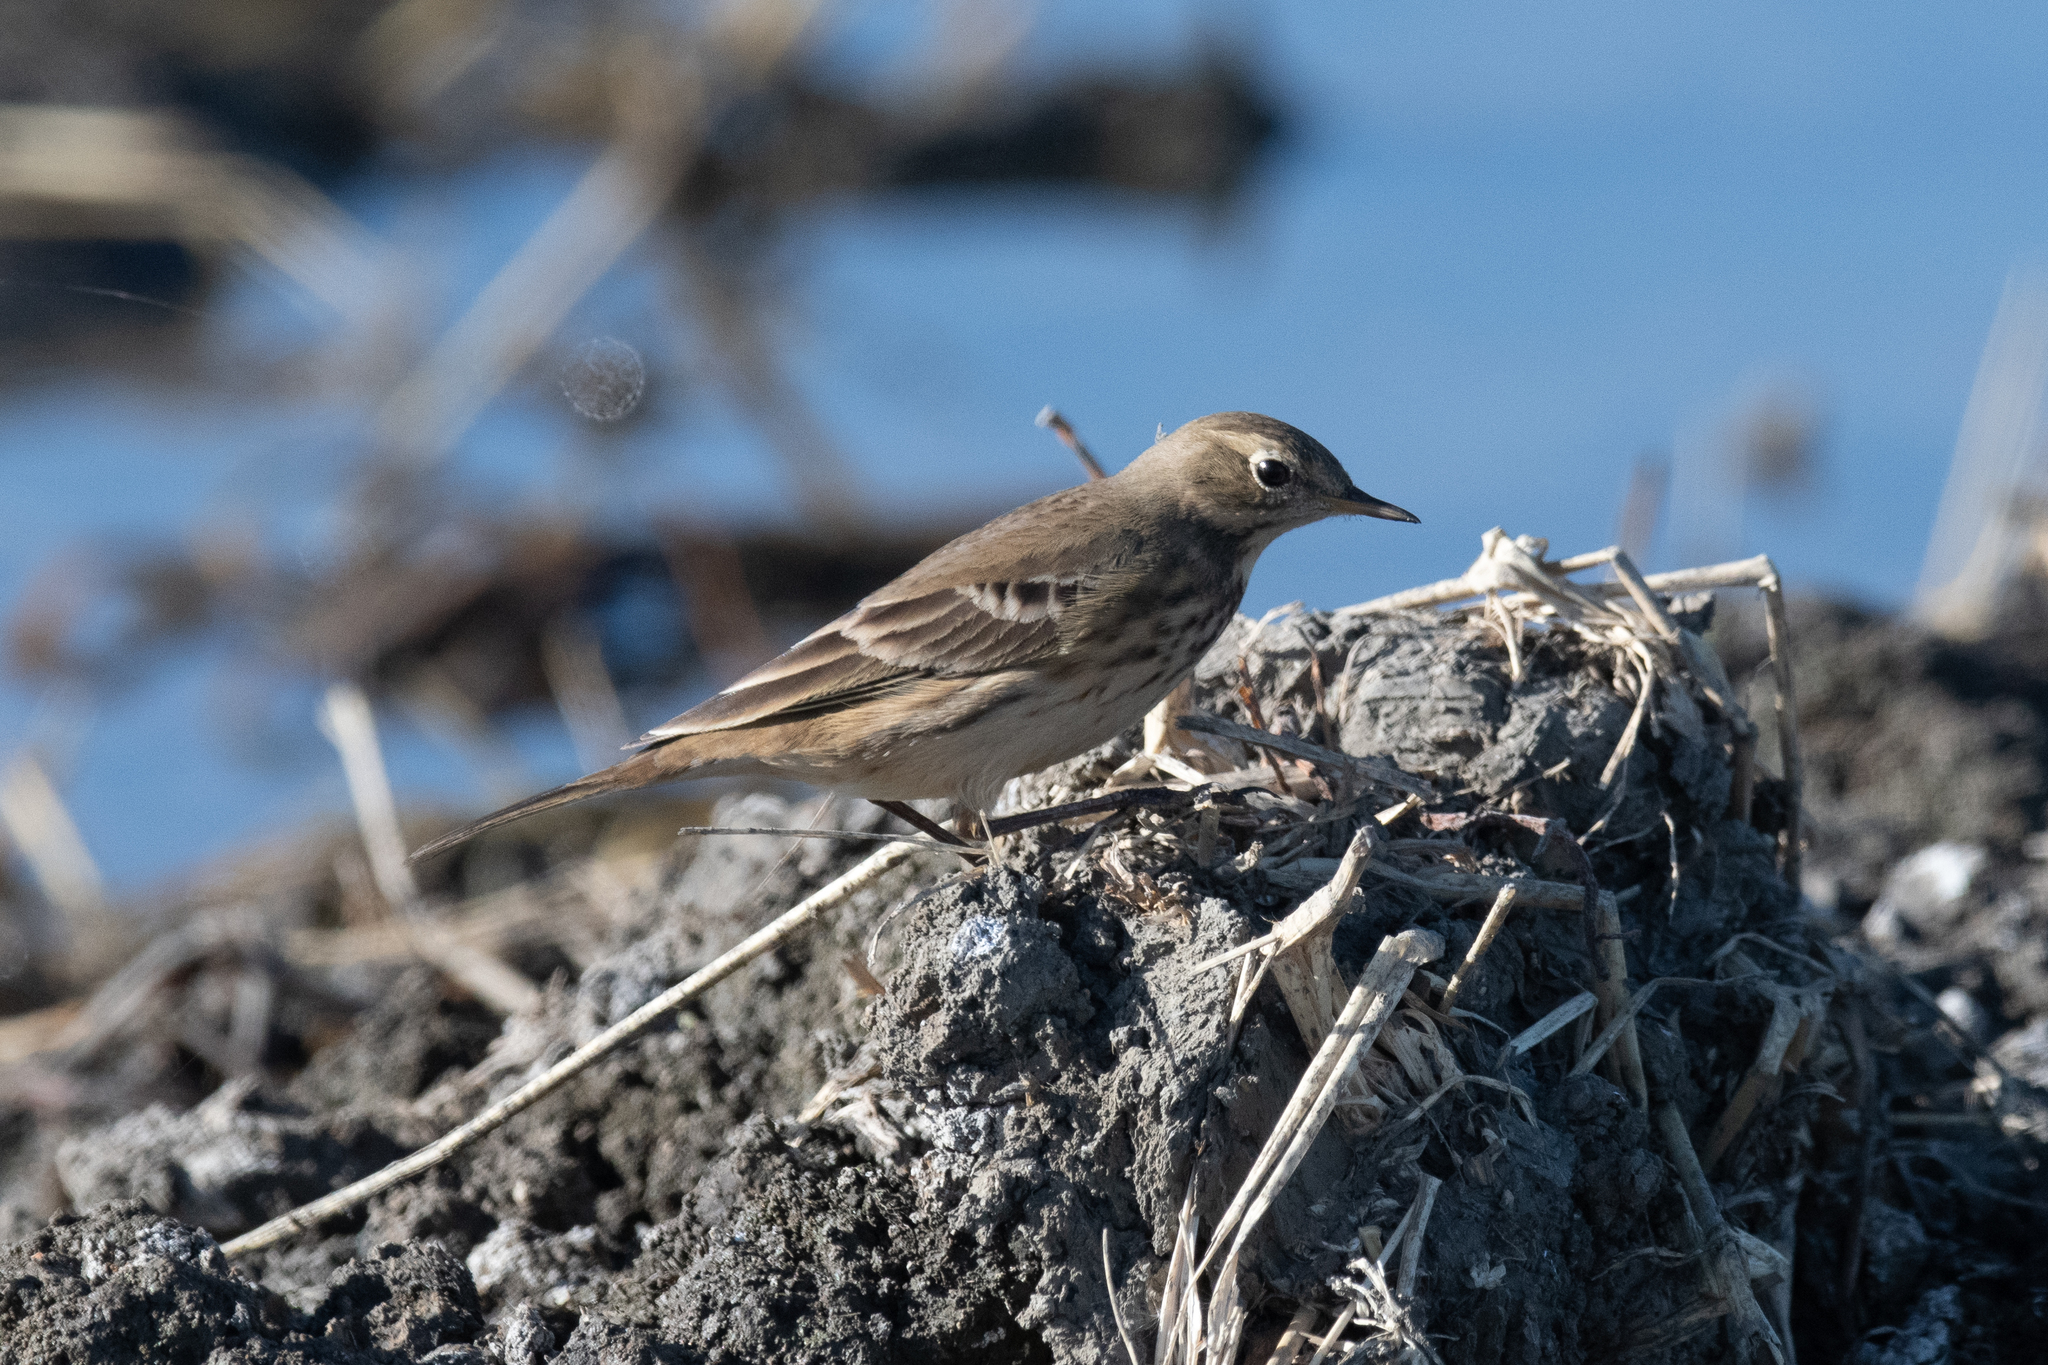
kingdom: Animalia
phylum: Chordata
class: Aves
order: Passeriformes
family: Motacillidae
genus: Anthus
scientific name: Anthus rubescens
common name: Buff-bellied pipit
